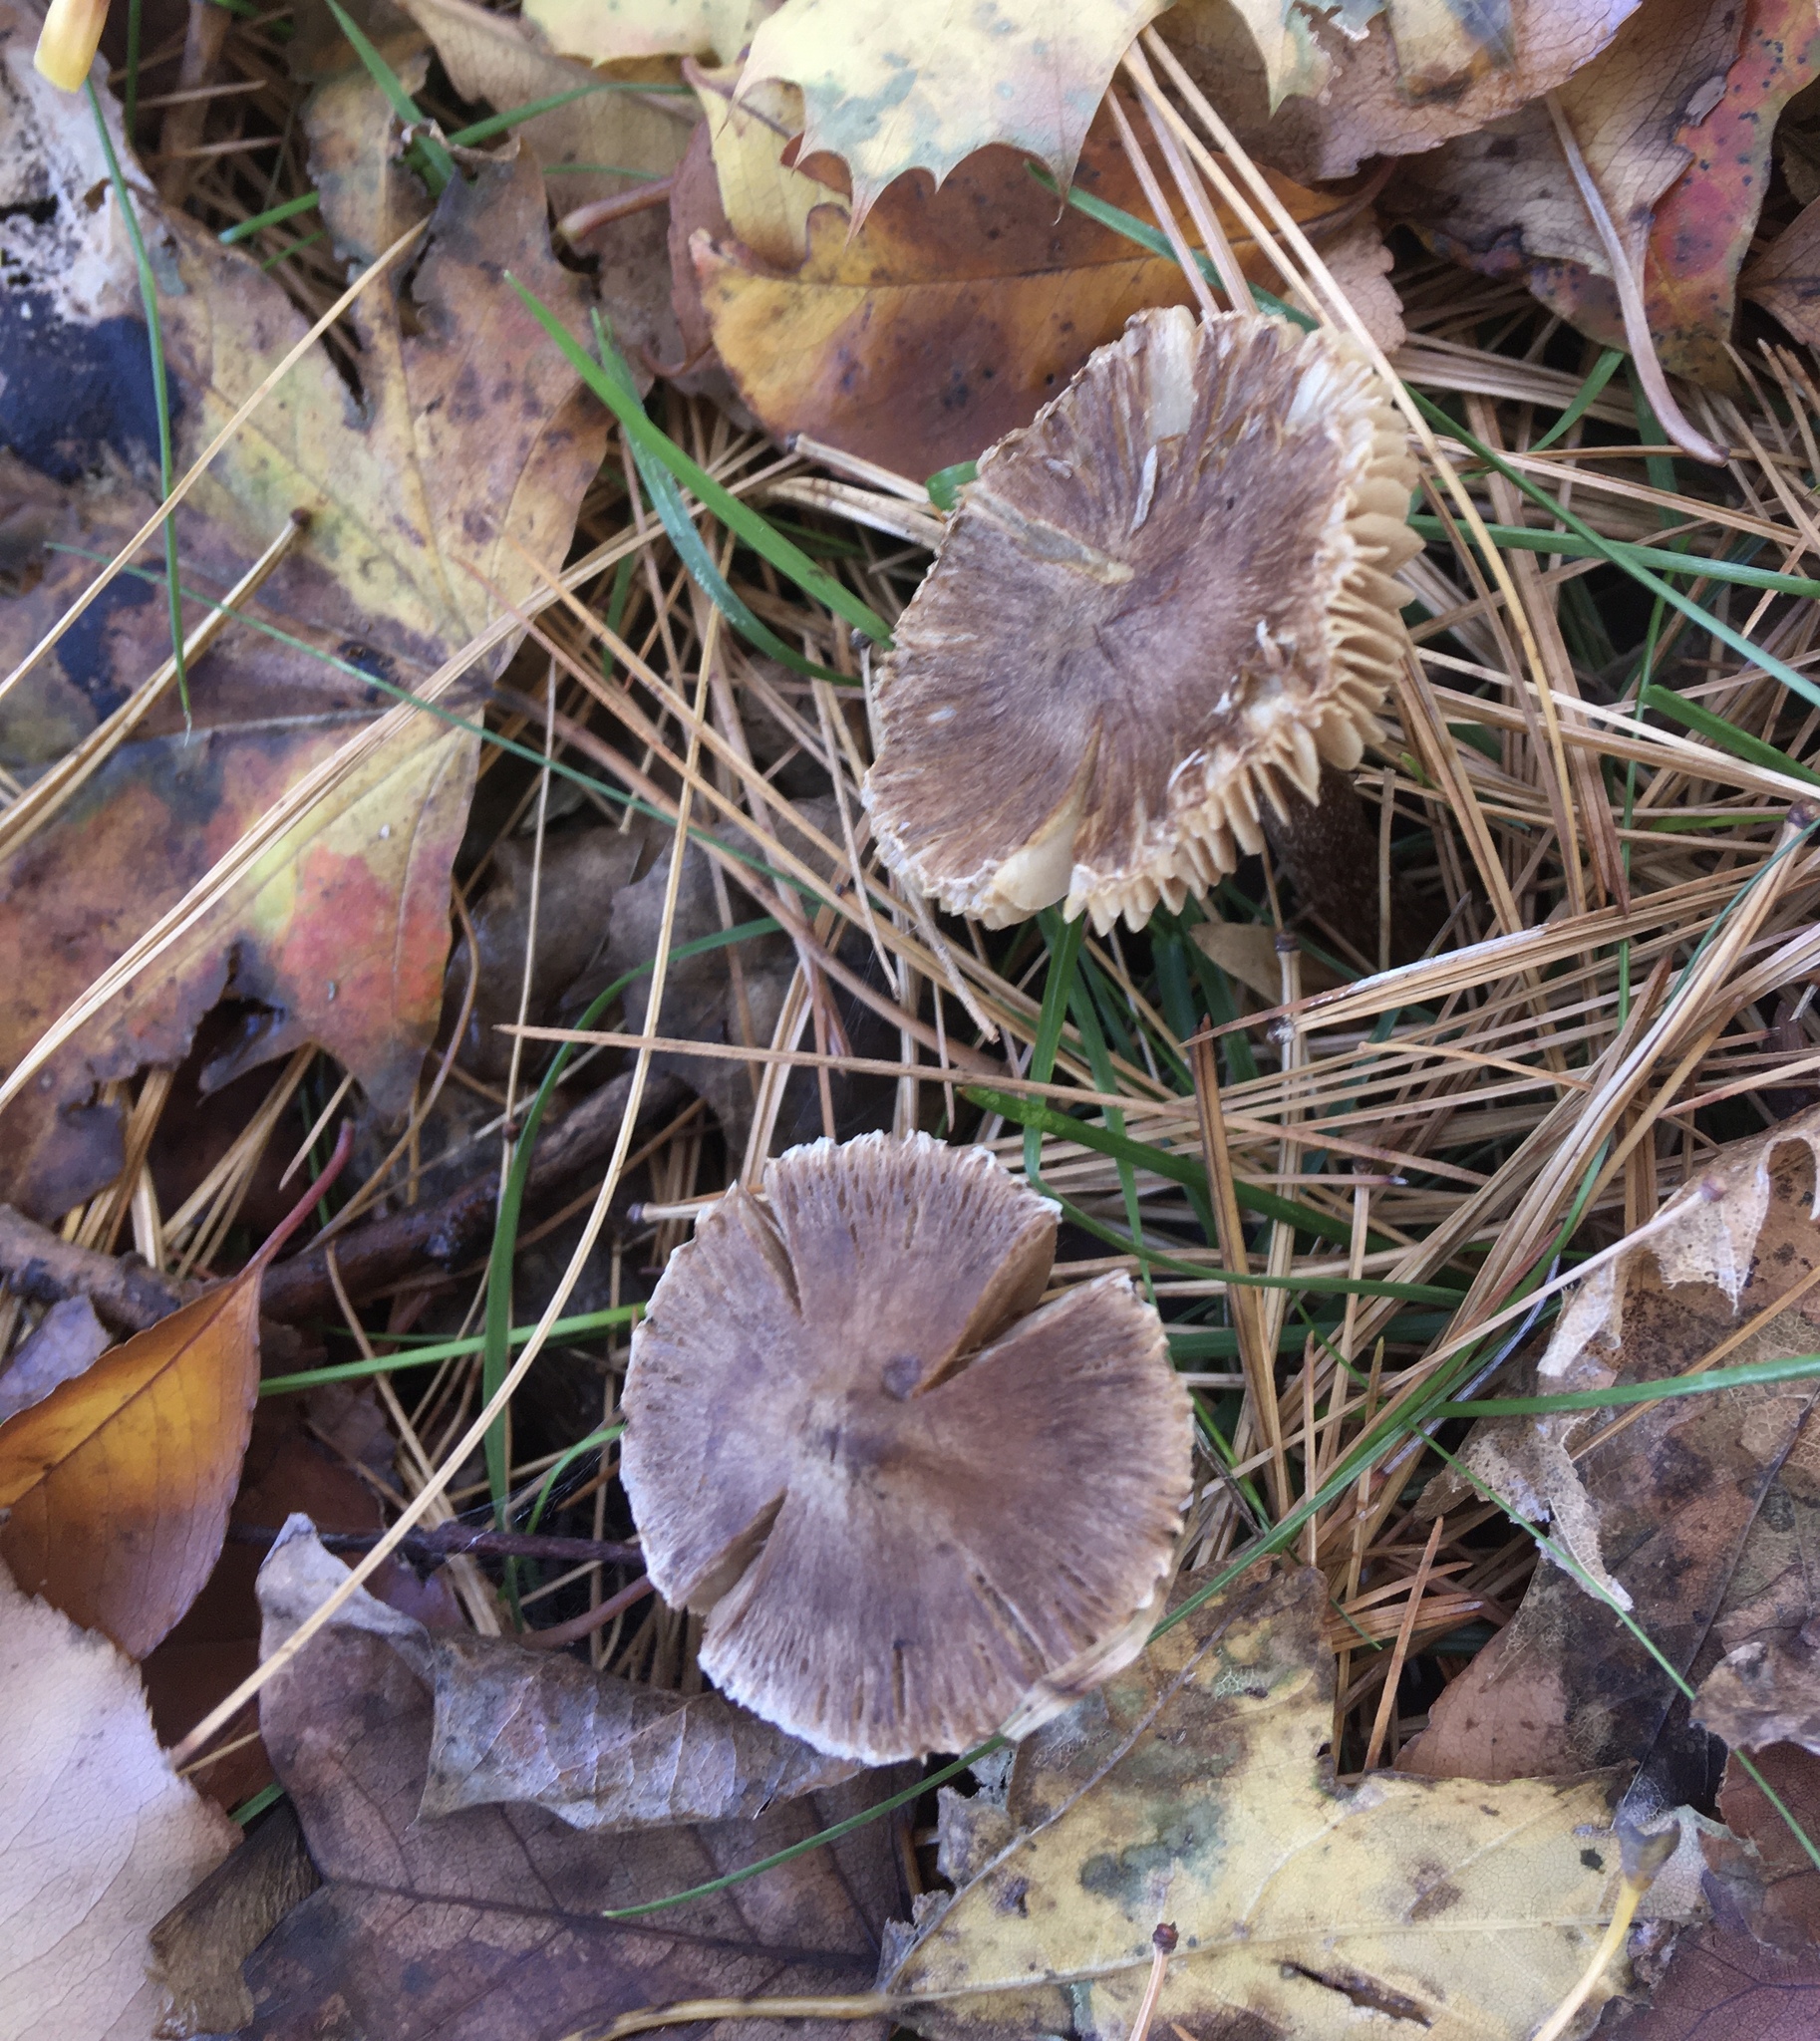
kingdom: Fungi
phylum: Basidiomycota
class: Agaricomycetes
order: Agaricales
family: Inocybaceae
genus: Inocybe
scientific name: Inocybe porcorum
